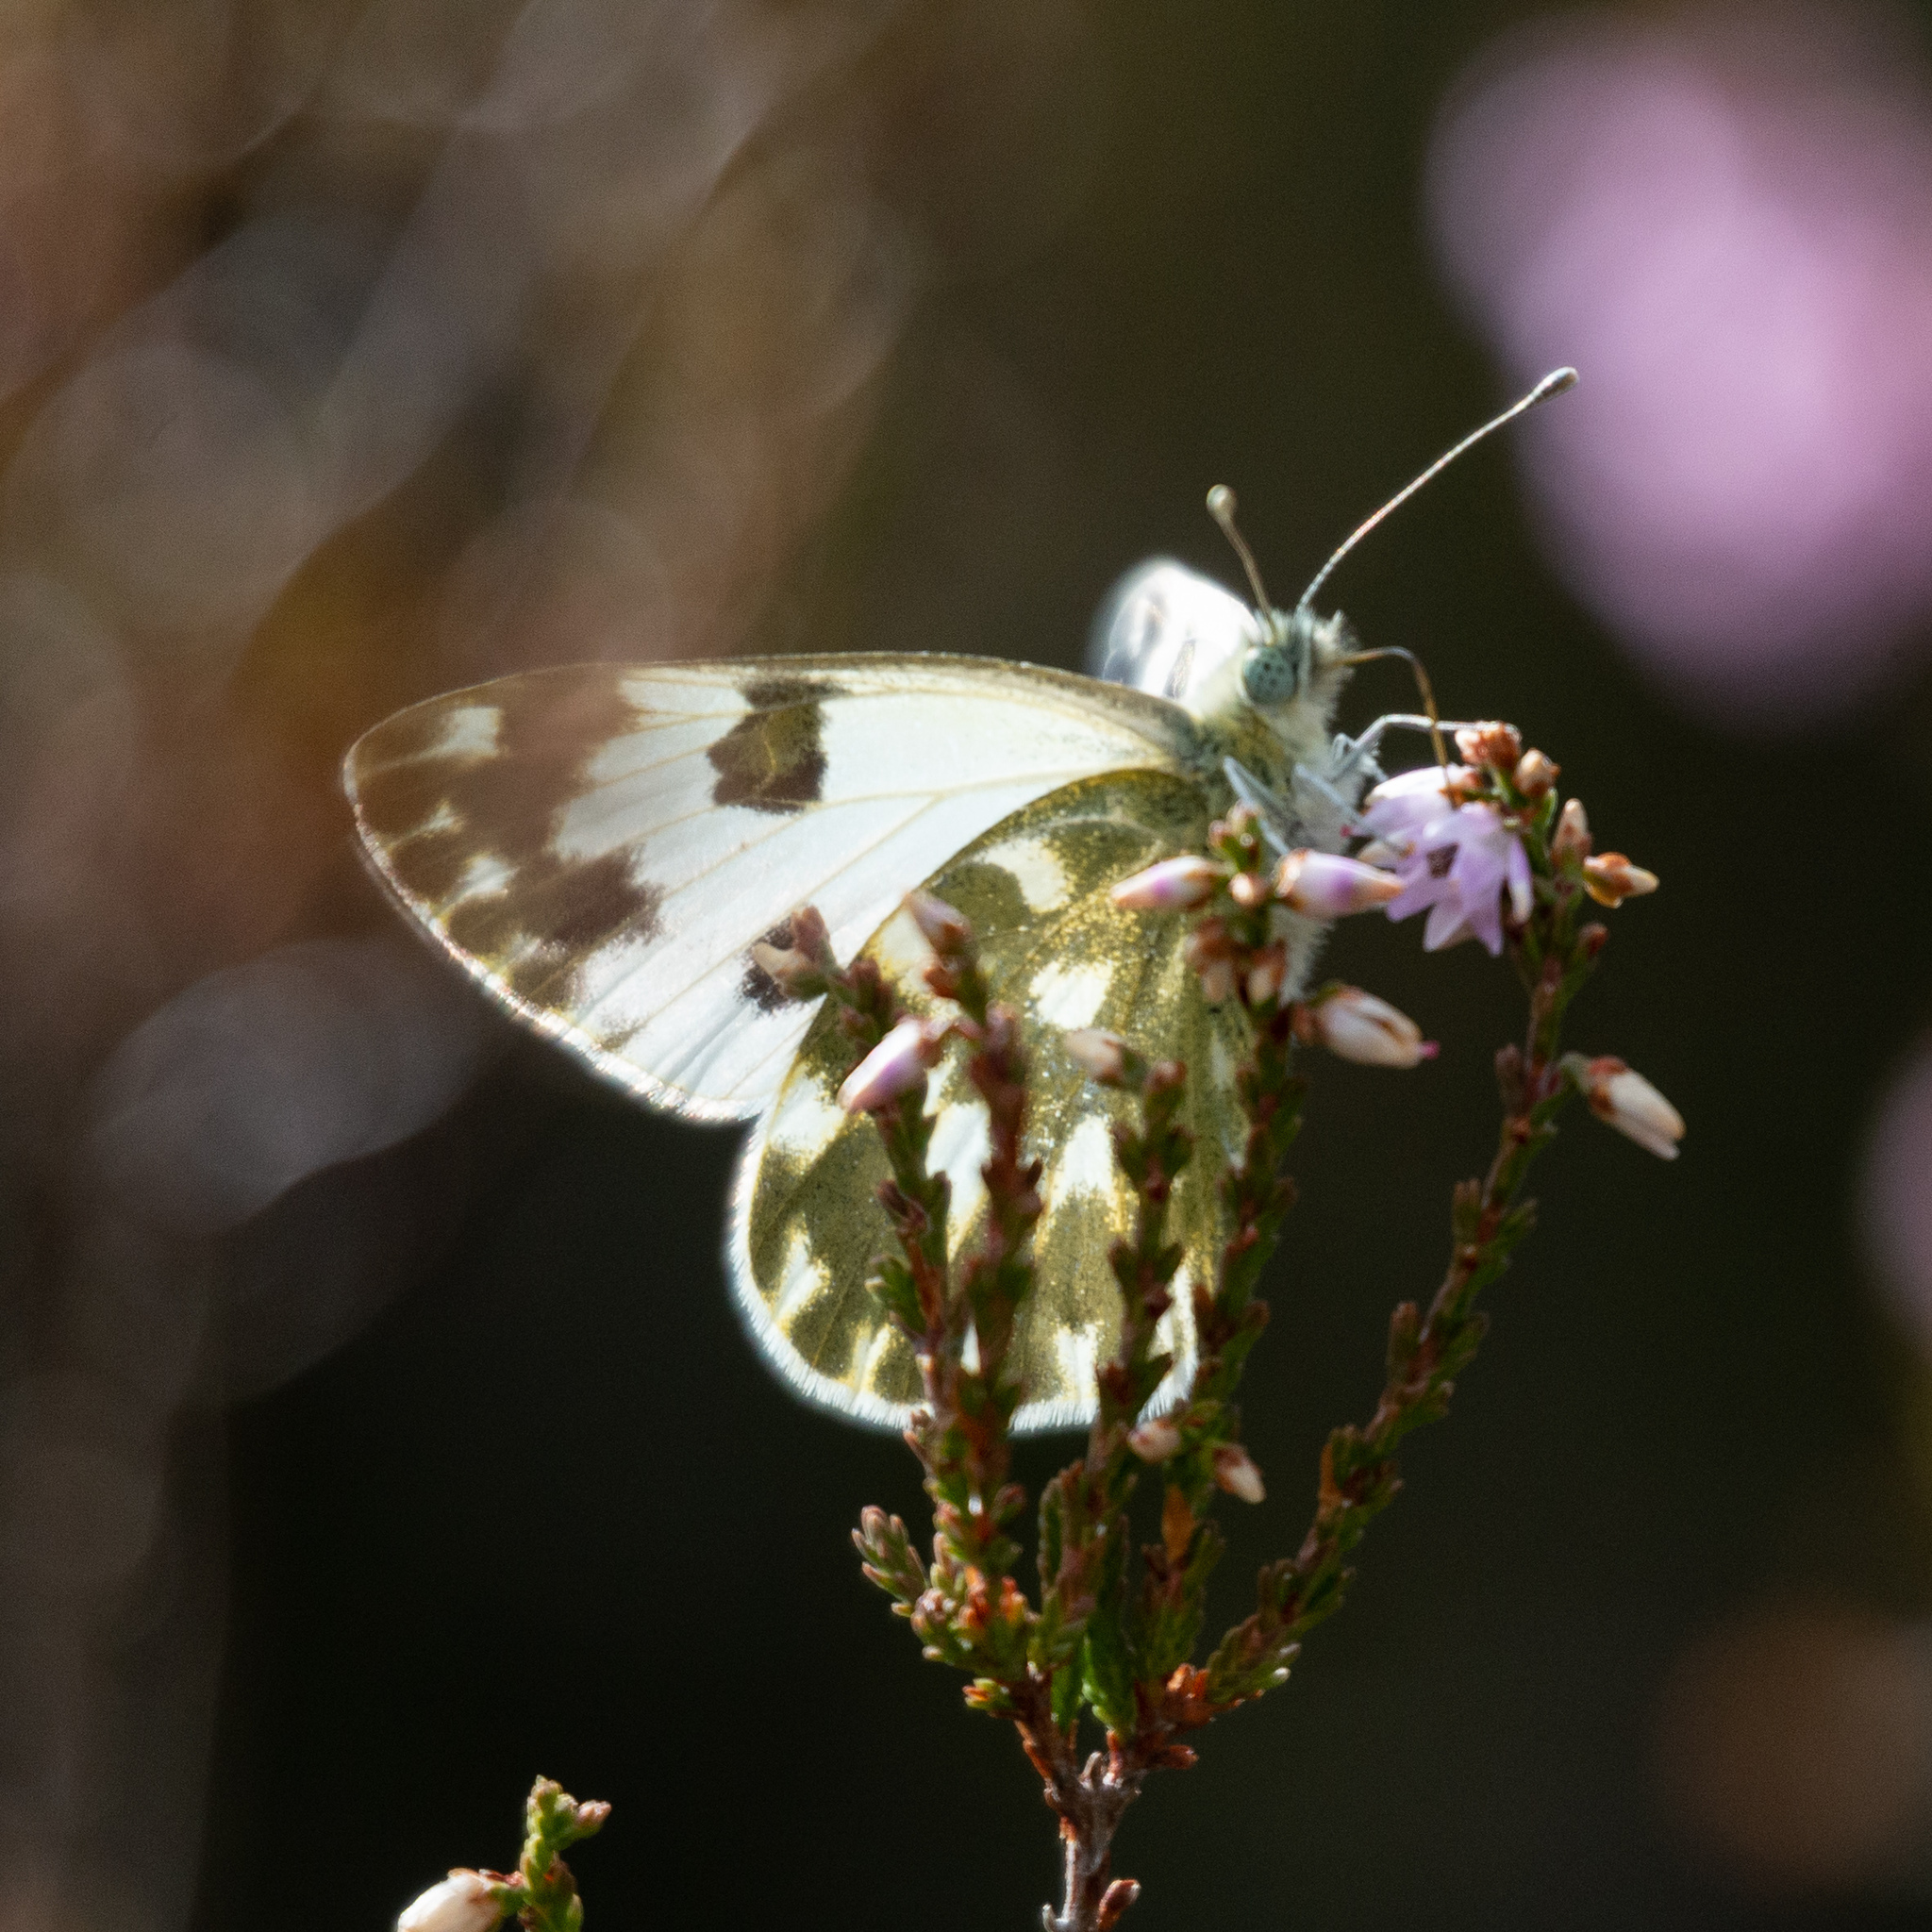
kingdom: Animalia
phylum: Arthropoda
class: Insecta
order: Lepidoptera
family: Pieridae
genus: Pontia
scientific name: Pontia daplidice
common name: Bath white
